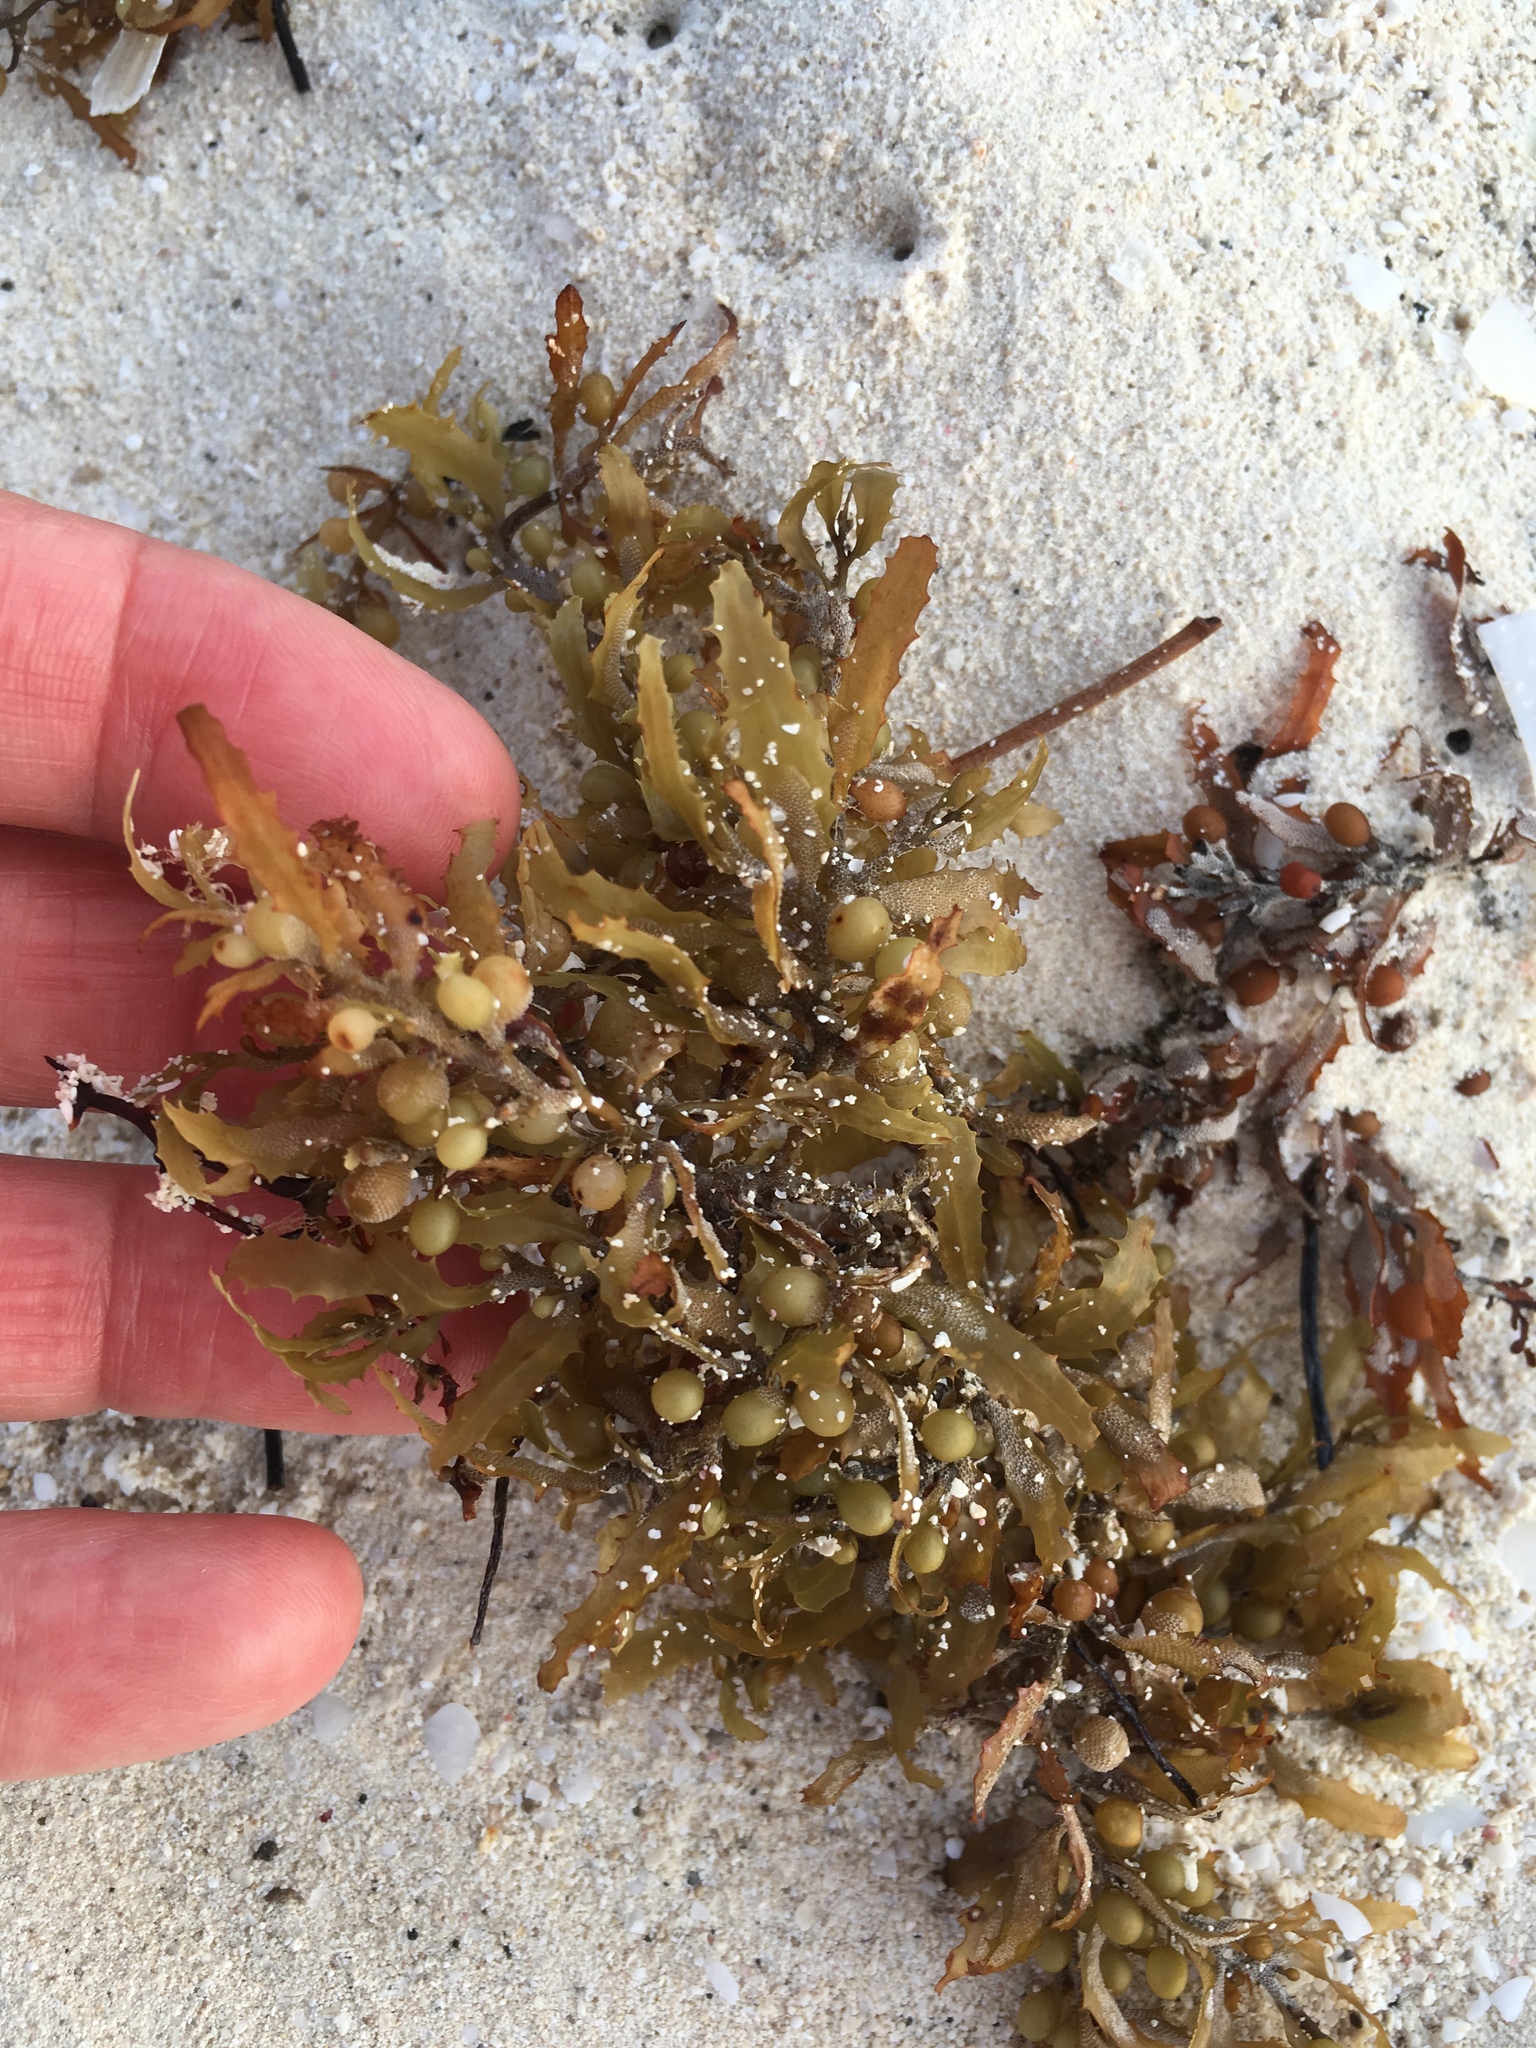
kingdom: Chromista
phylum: Ochrophyta
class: Phaeophyceae
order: Fucales
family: Sargassaceae
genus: Sargassum
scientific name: Sargassum fluitans
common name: Sargassum seaweed
